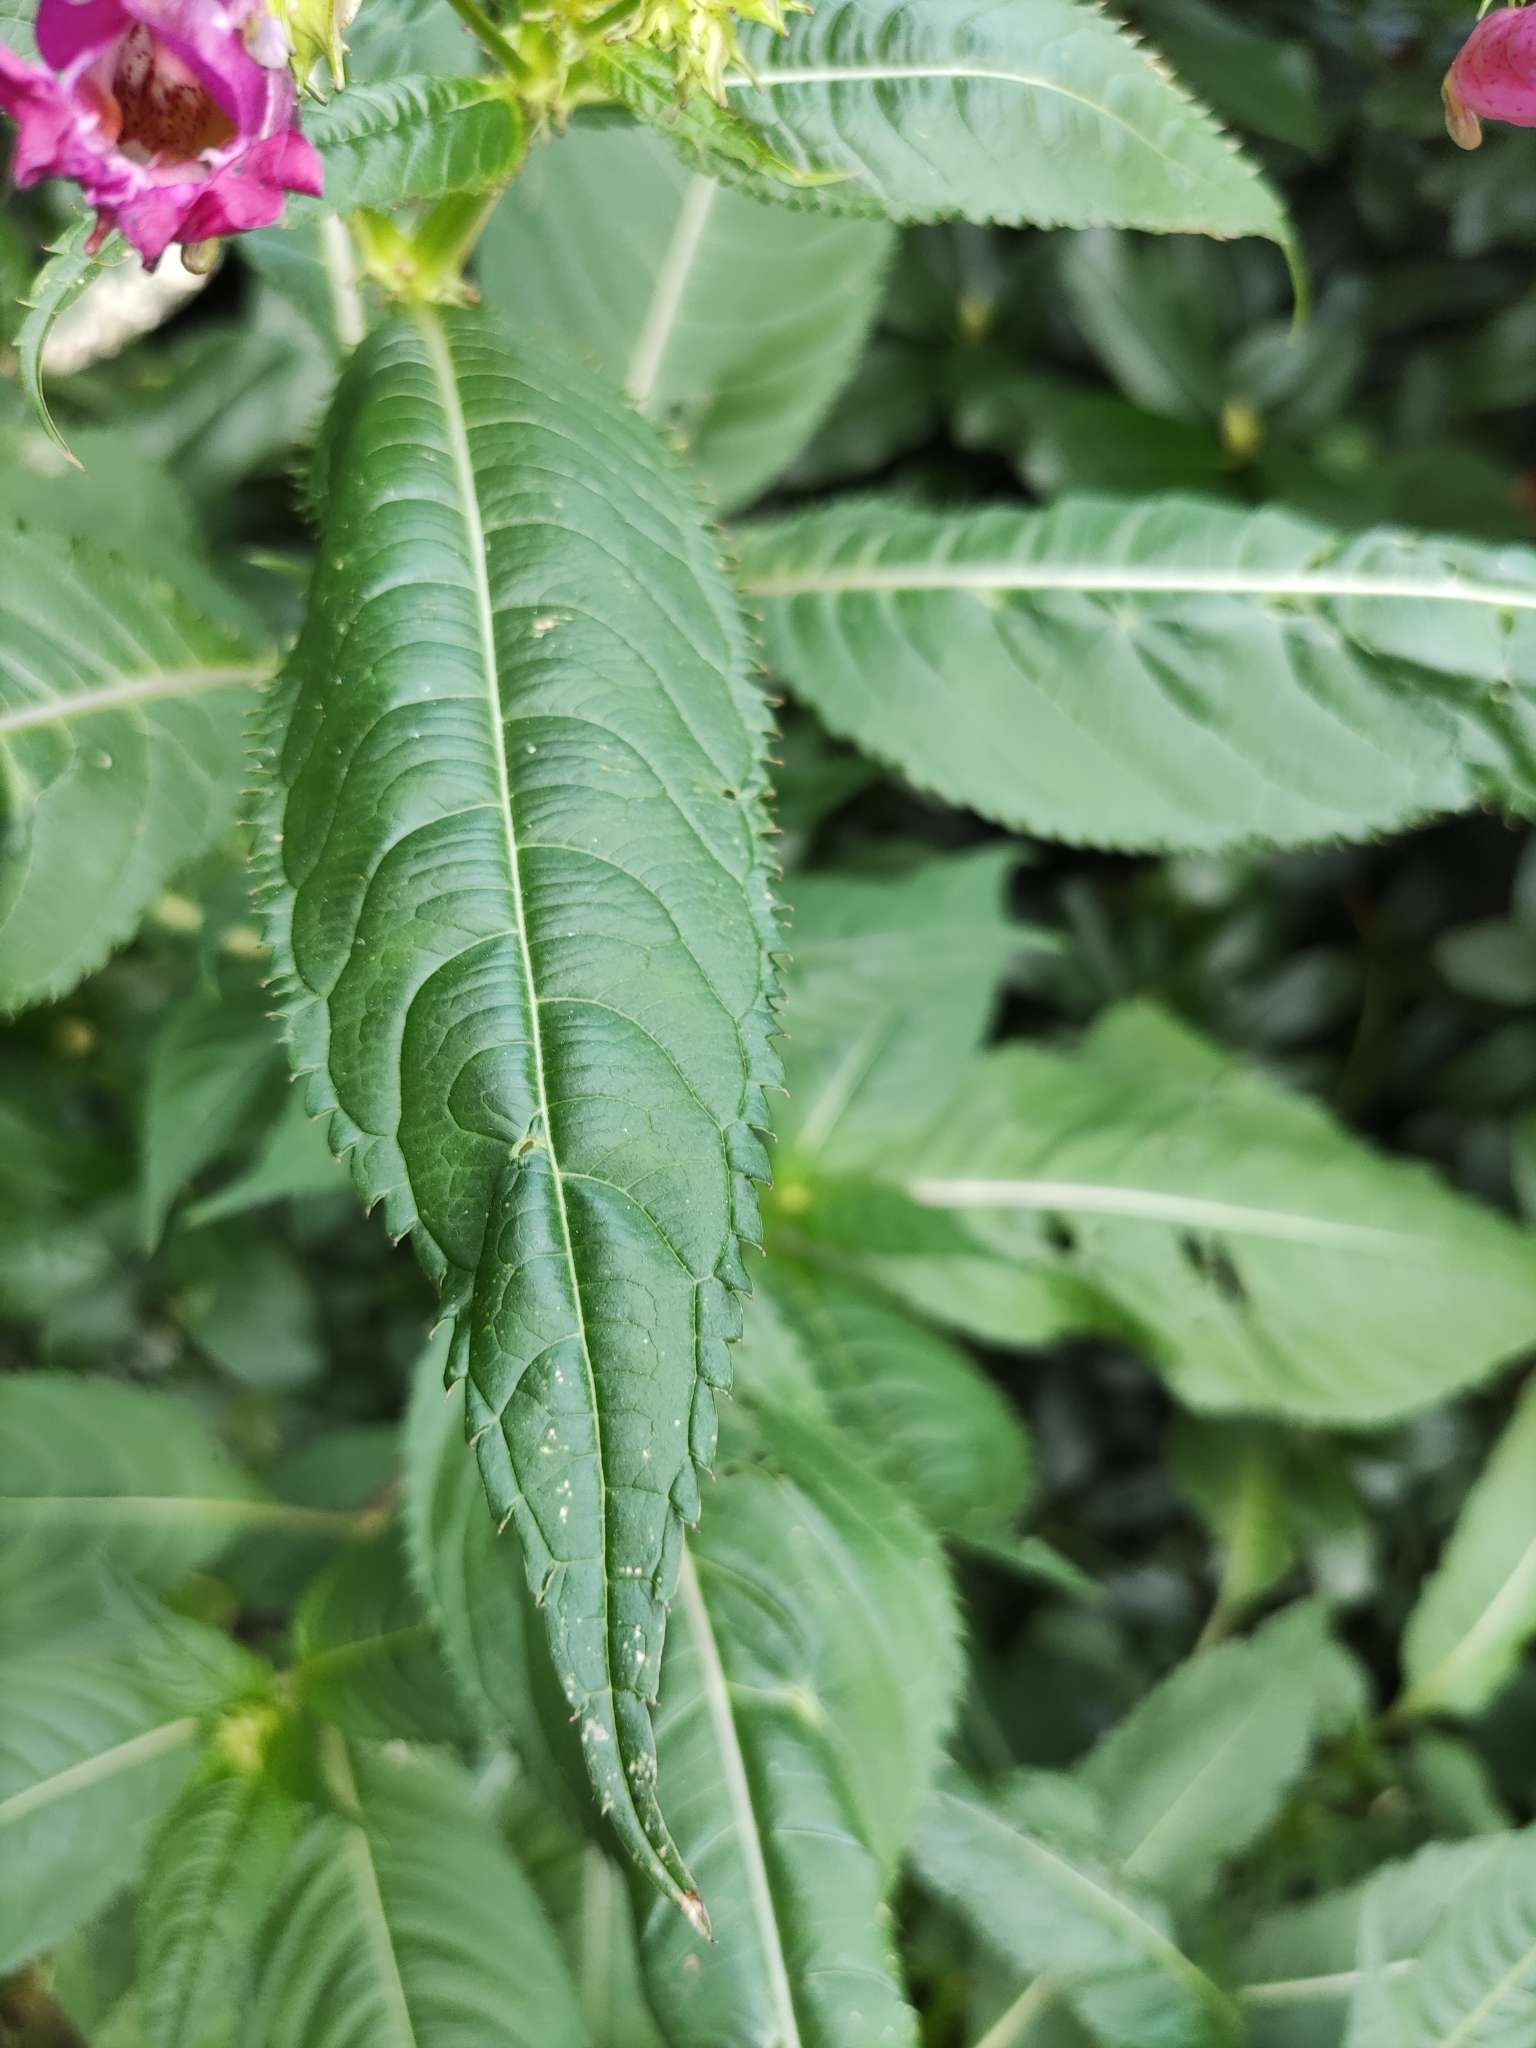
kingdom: Plantae
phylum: Tracheophyta
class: Magnoliopsida
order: Ericales
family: Balsaminaceae
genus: Impatiens
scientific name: Impatiens glandulifera
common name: Himalayan balsam
